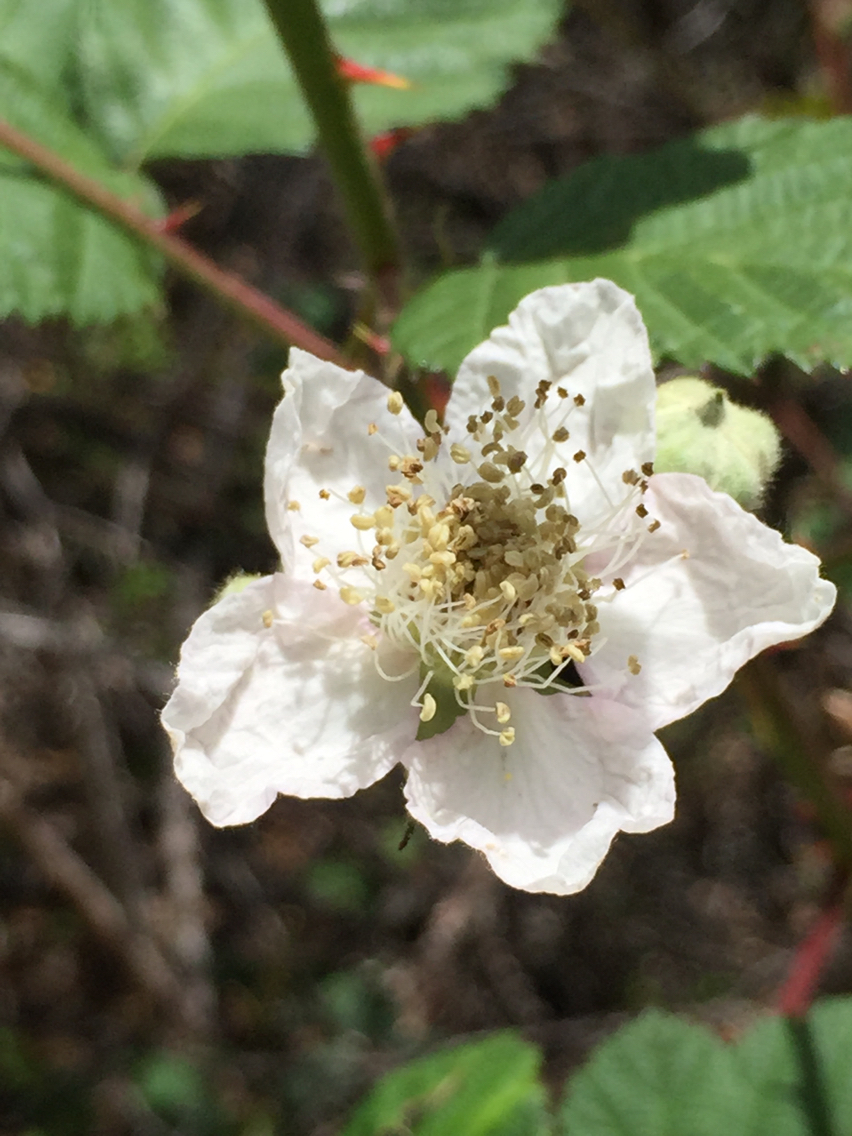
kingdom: Plantae
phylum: Tracheophyta
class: Magnoliopsida
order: Rosales
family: Rosaceae
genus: Rubus
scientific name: Rubus armeniacus
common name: Himalayan blackberry
